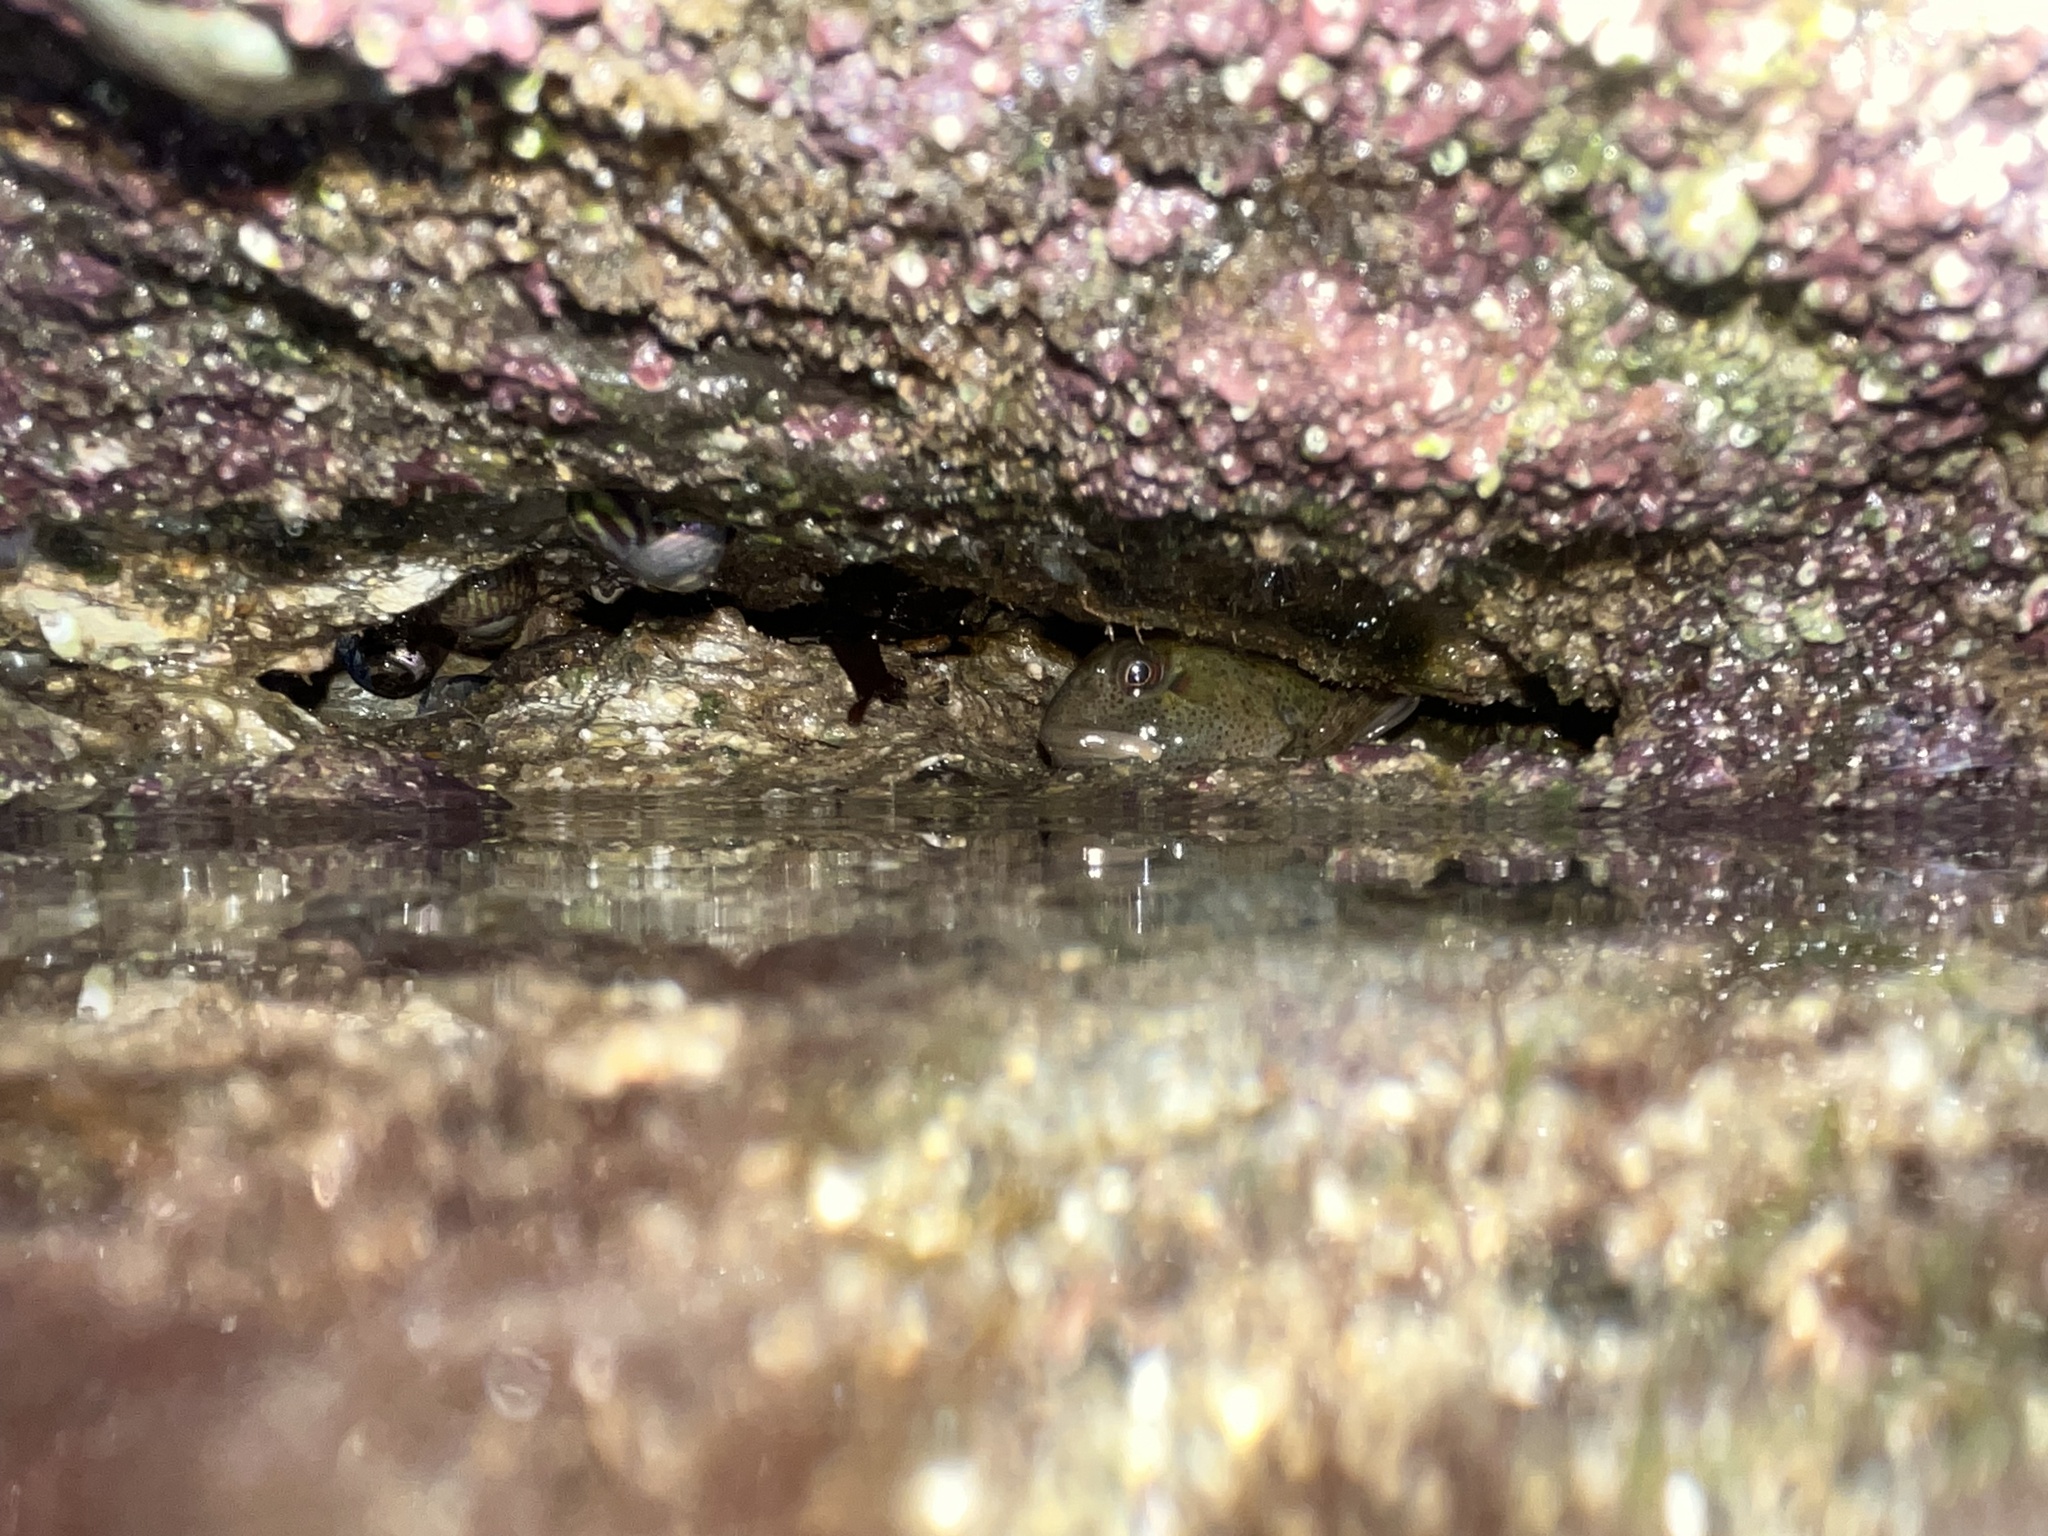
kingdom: Animalia
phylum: Chordata
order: Perciformes
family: Blenniidae
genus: Lipophrys
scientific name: Lipophrys pholis
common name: Shanny
